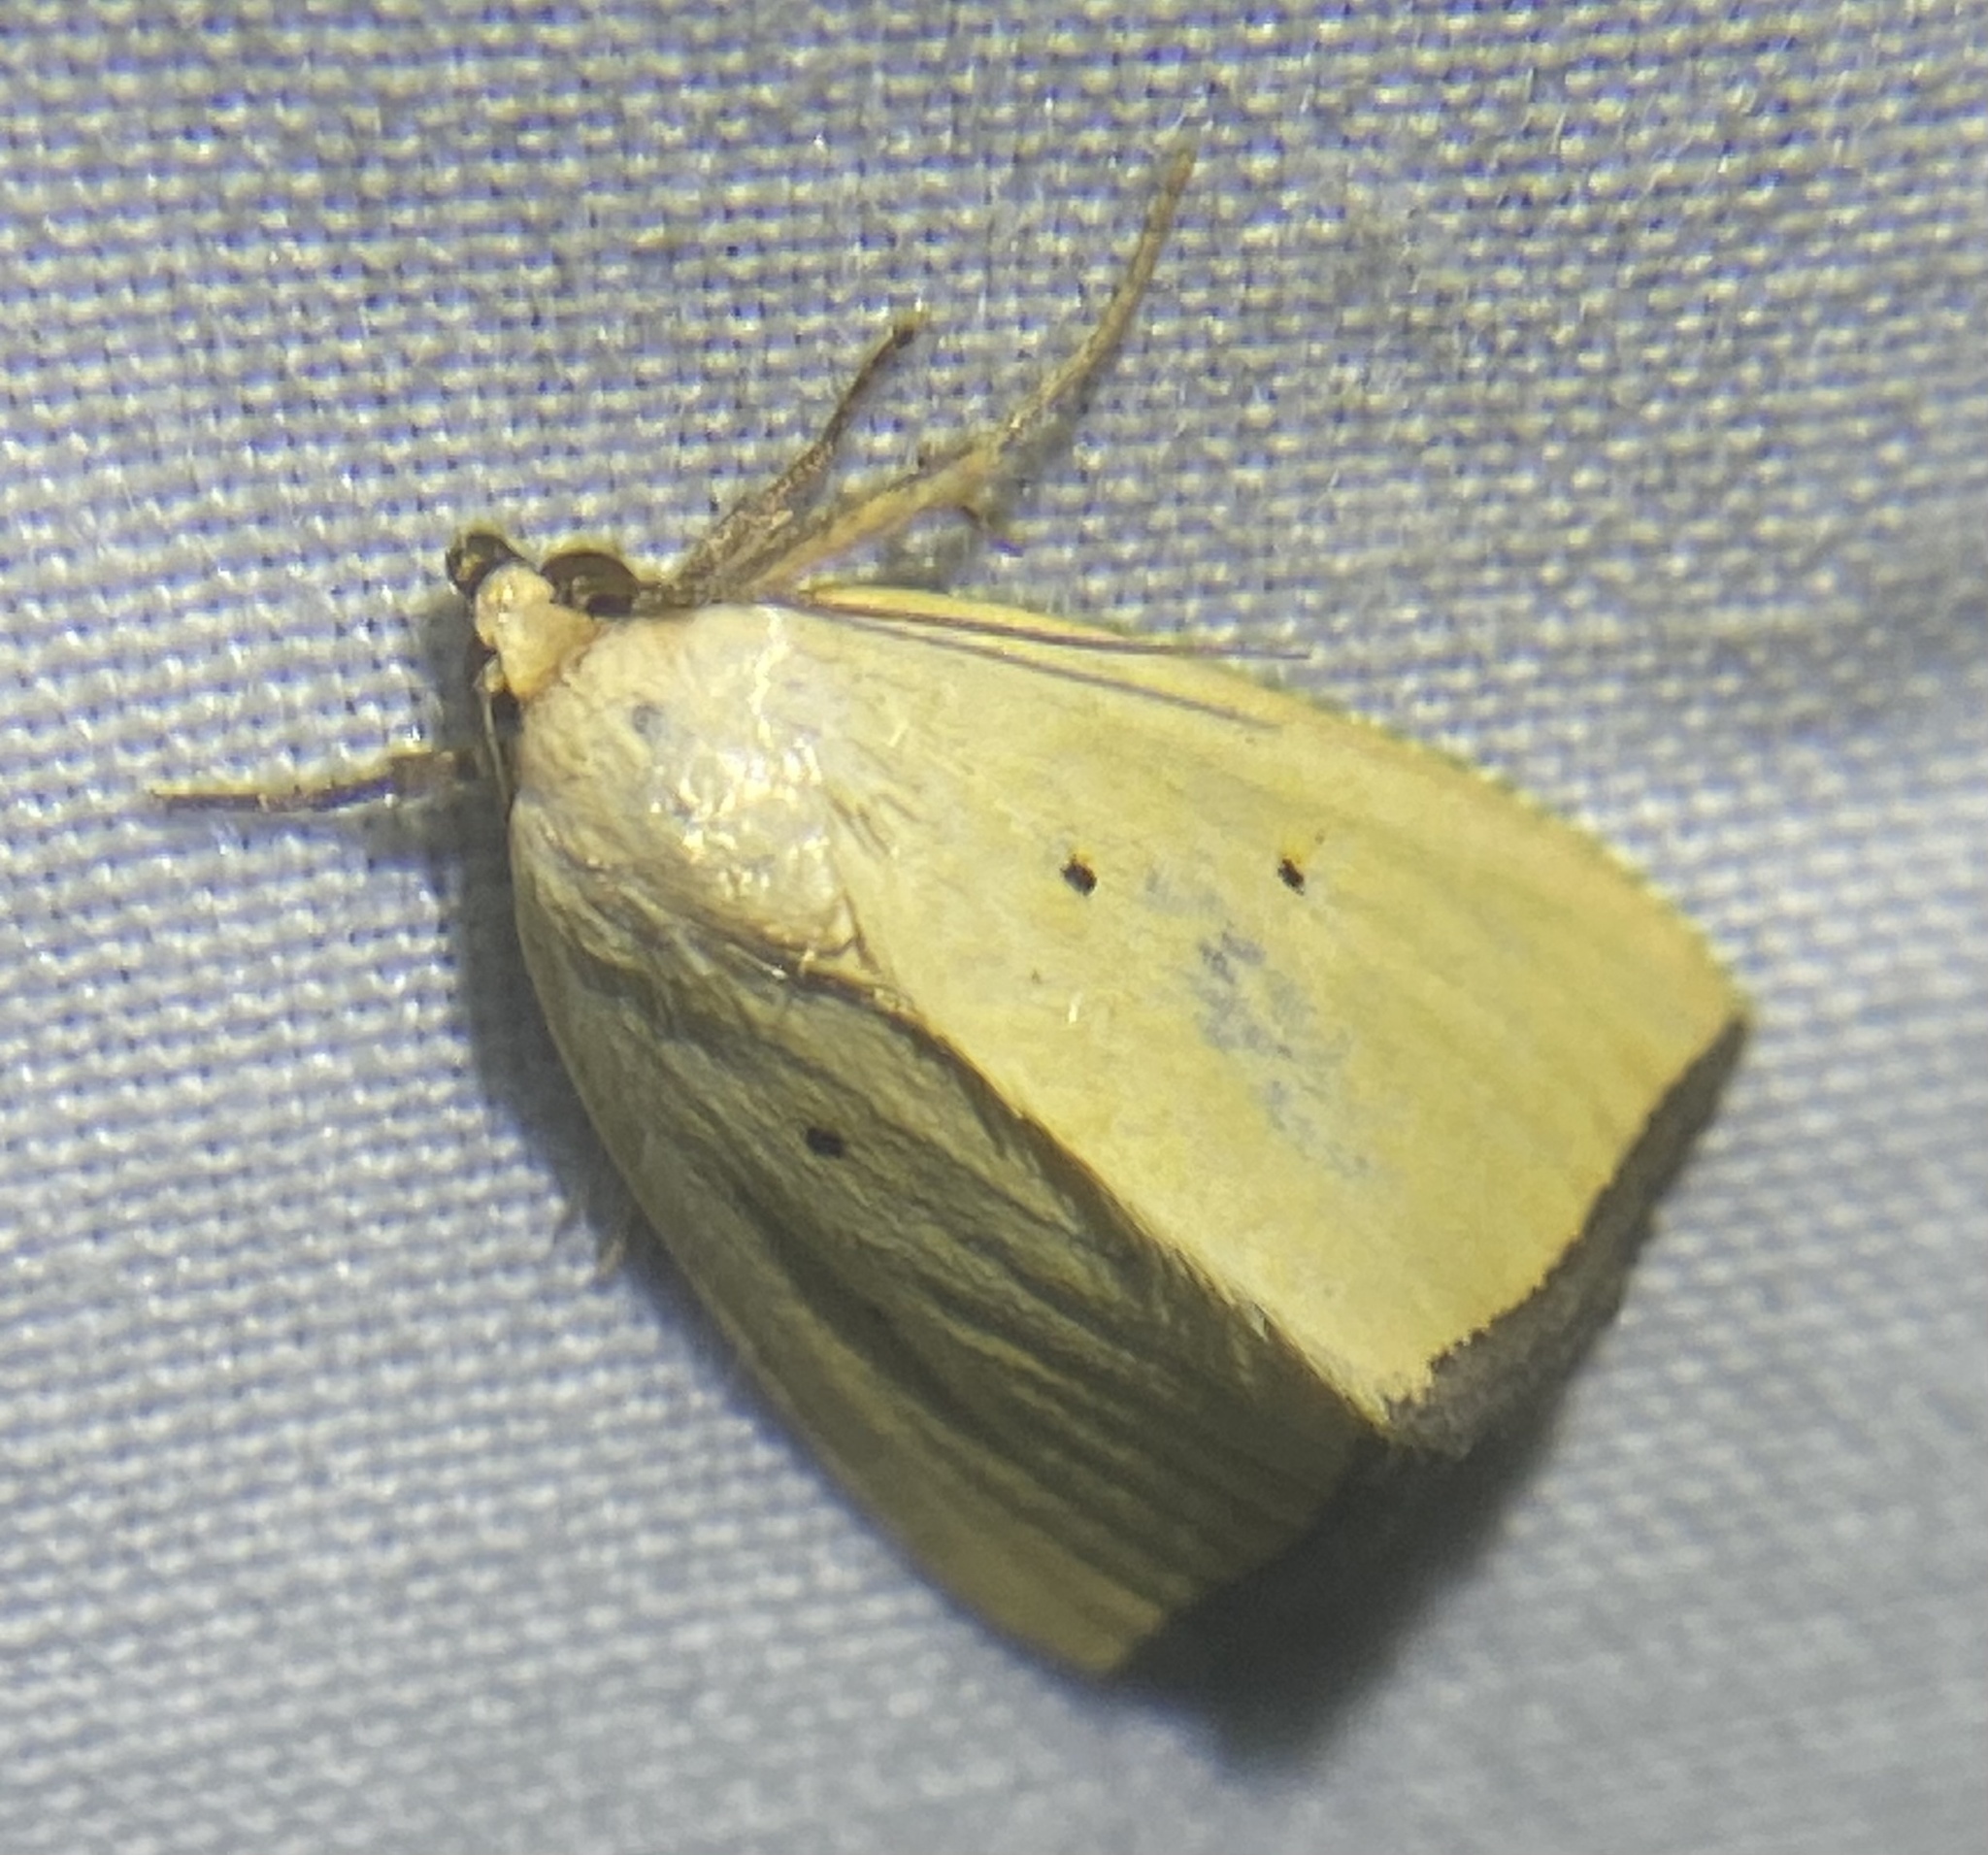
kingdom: Animalia
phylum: Arthropoda
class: Insecta
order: Lepidoptera
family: Noctuidae
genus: Marimatha
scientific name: Marimatha nigrofimbria
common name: Black-bordered lemon moth
